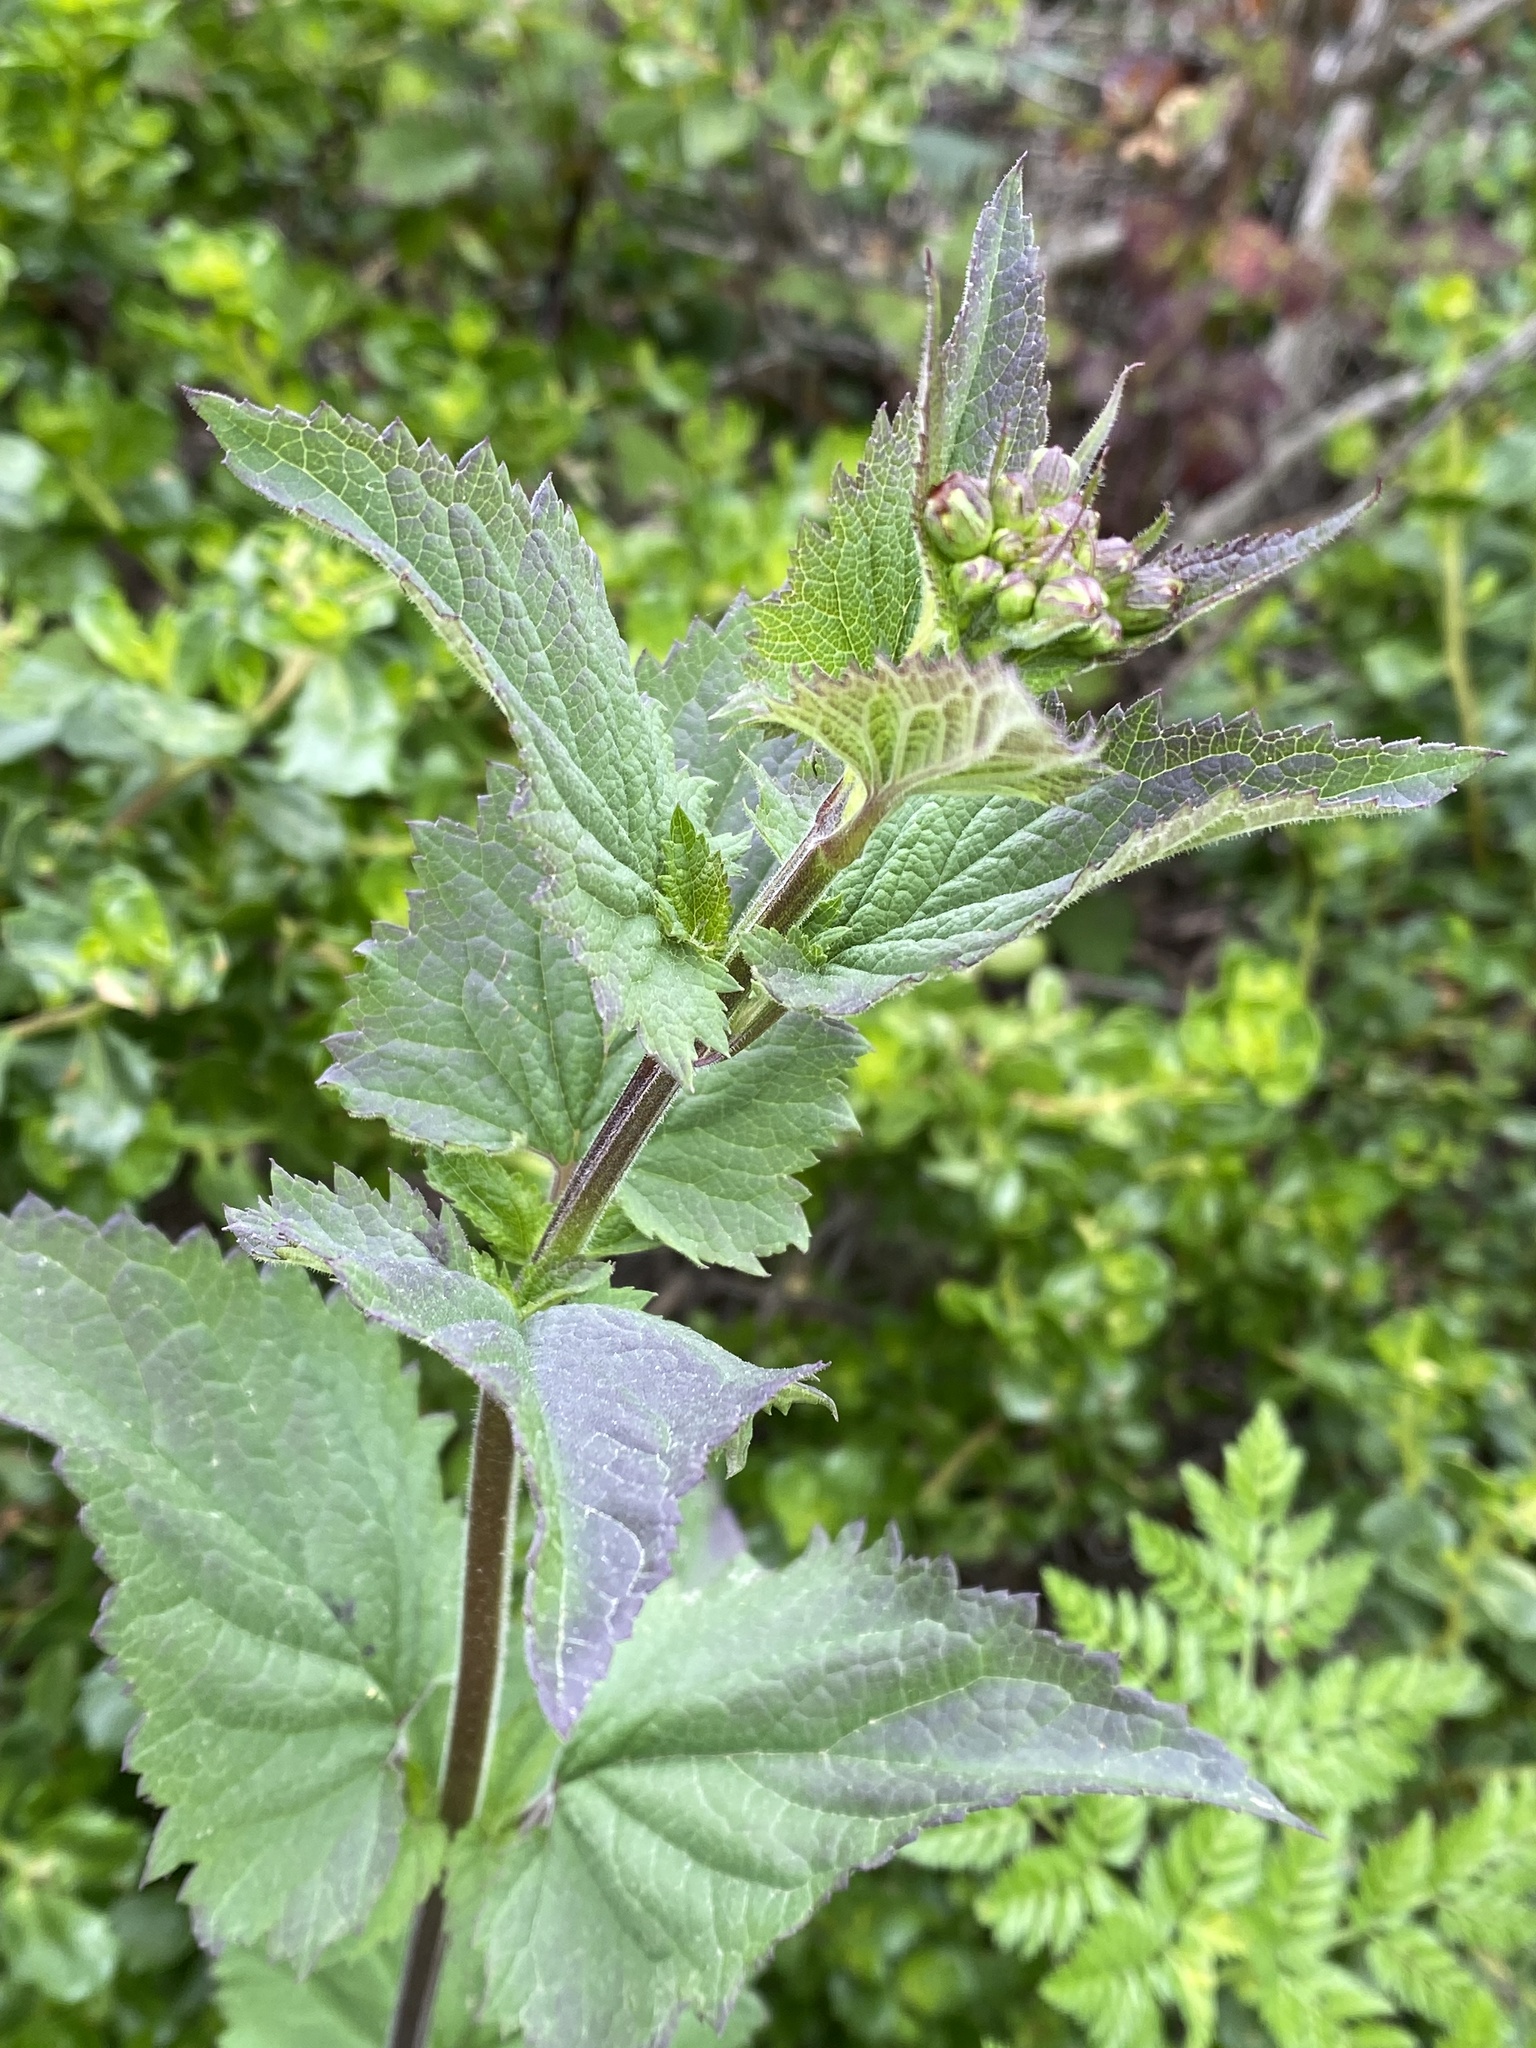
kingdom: Plantae
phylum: Tracheophyta
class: Magnoliopsida
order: Lamiales
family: Scrophulariaceae
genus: Scrophularia
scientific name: Scrophularia californica
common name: California figwort
